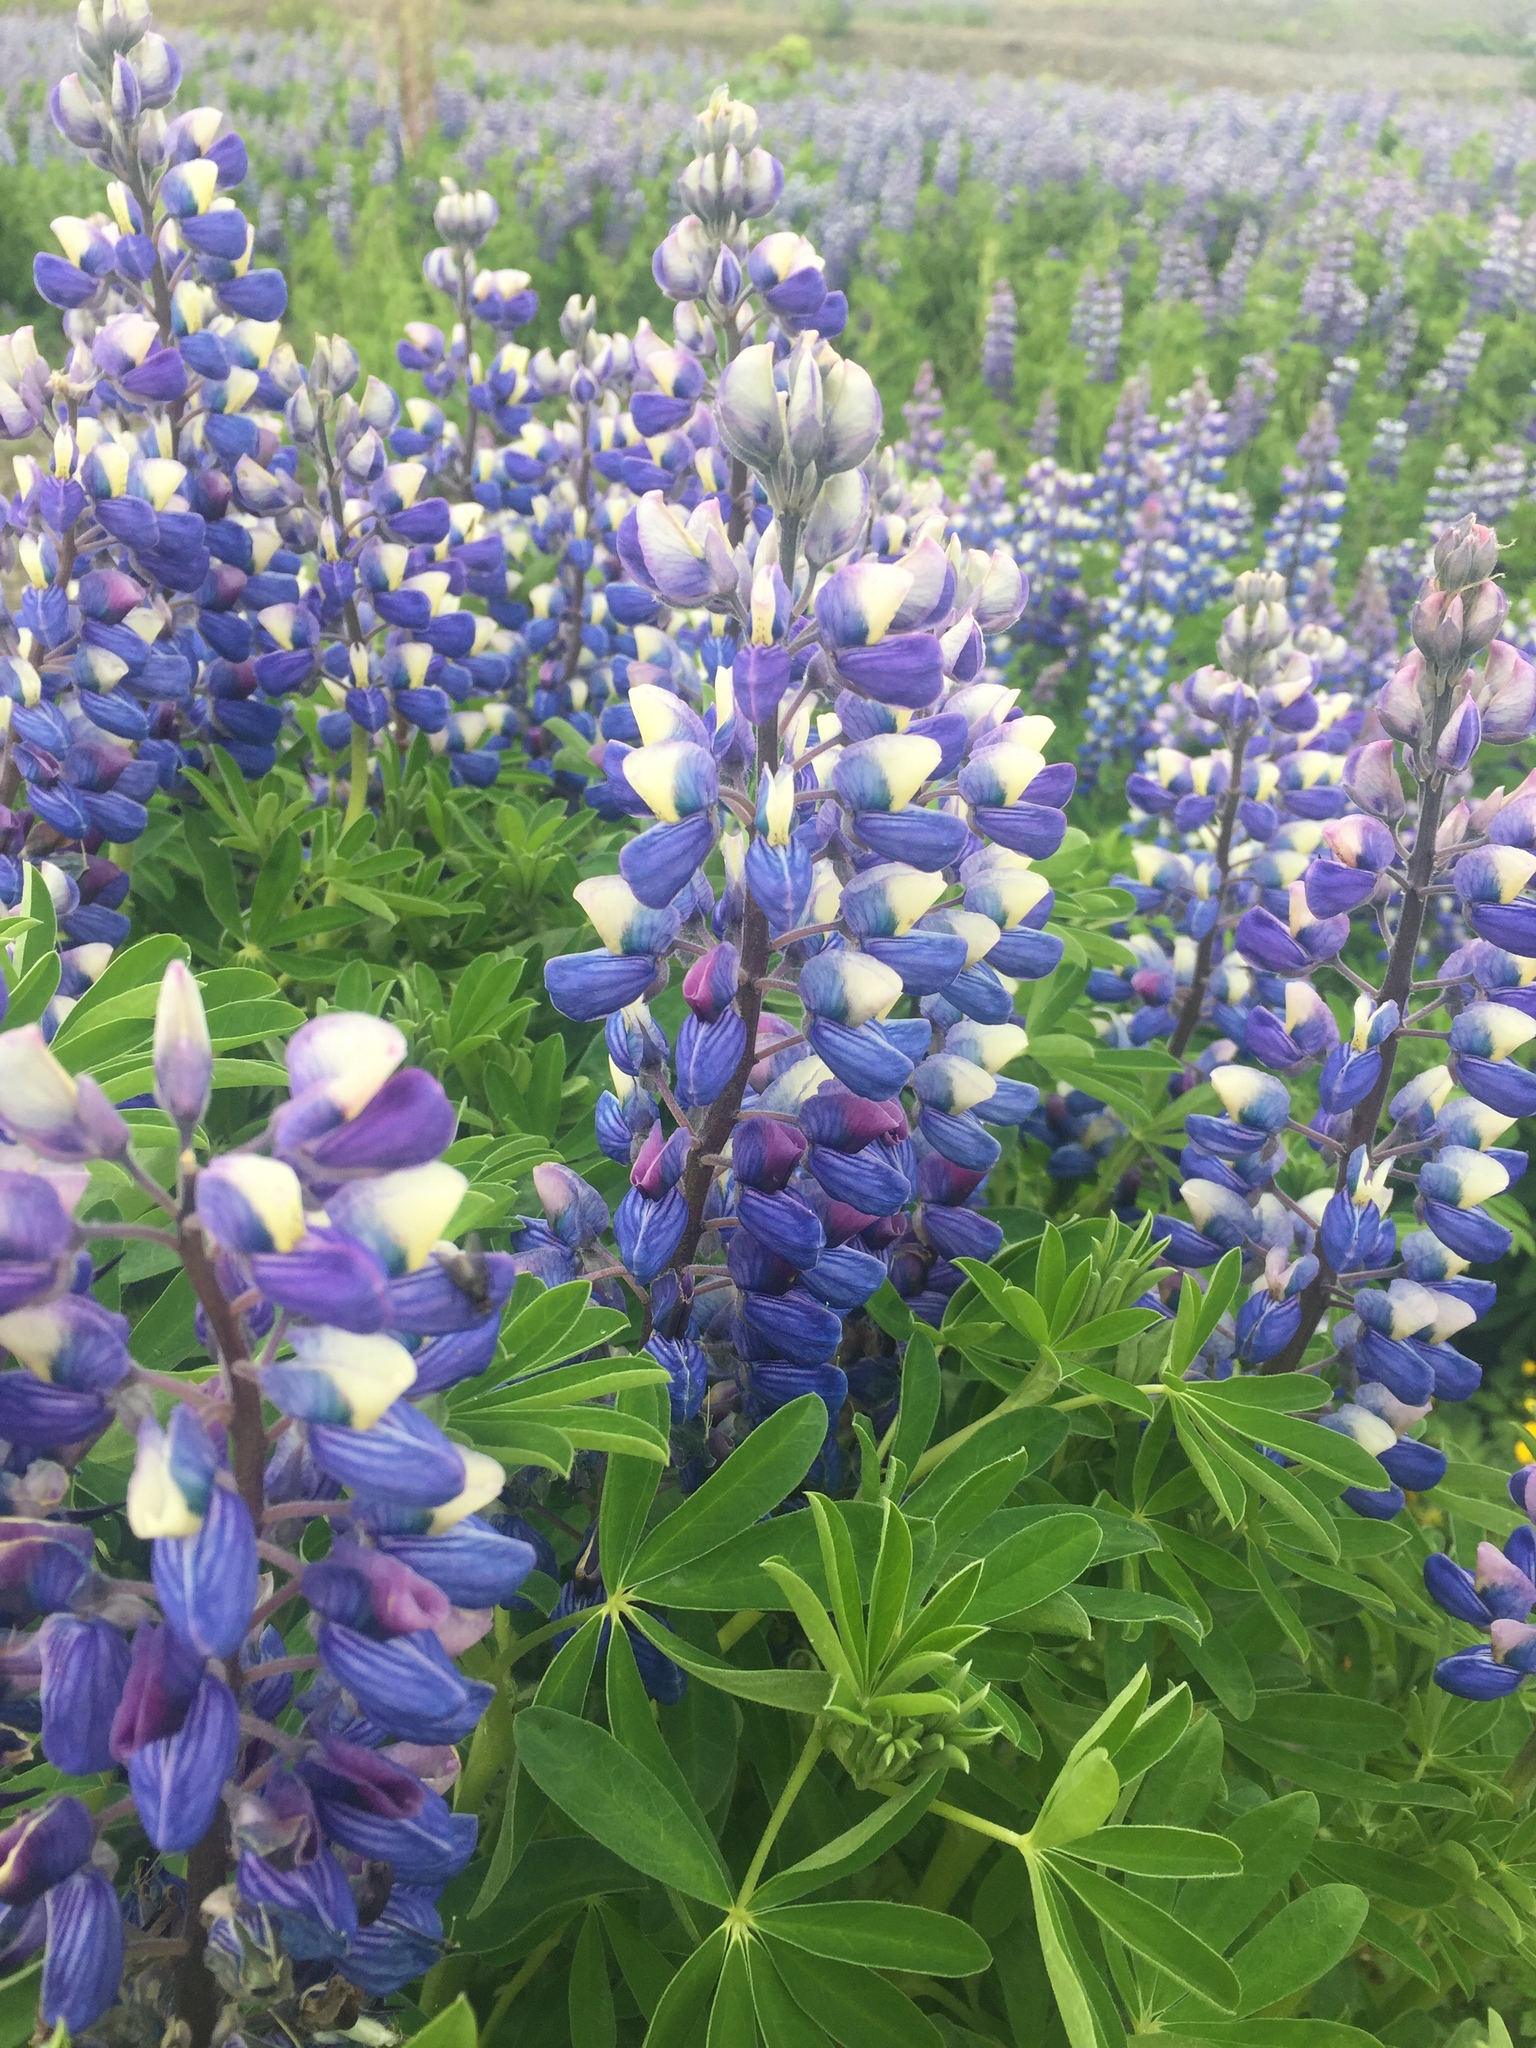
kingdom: Plantae
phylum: Tracheophyta
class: Magnoliopsida
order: Fabales
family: Fabaceae
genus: Lupinus
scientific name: Lupinus nootkatensis
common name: Nootka lupine
